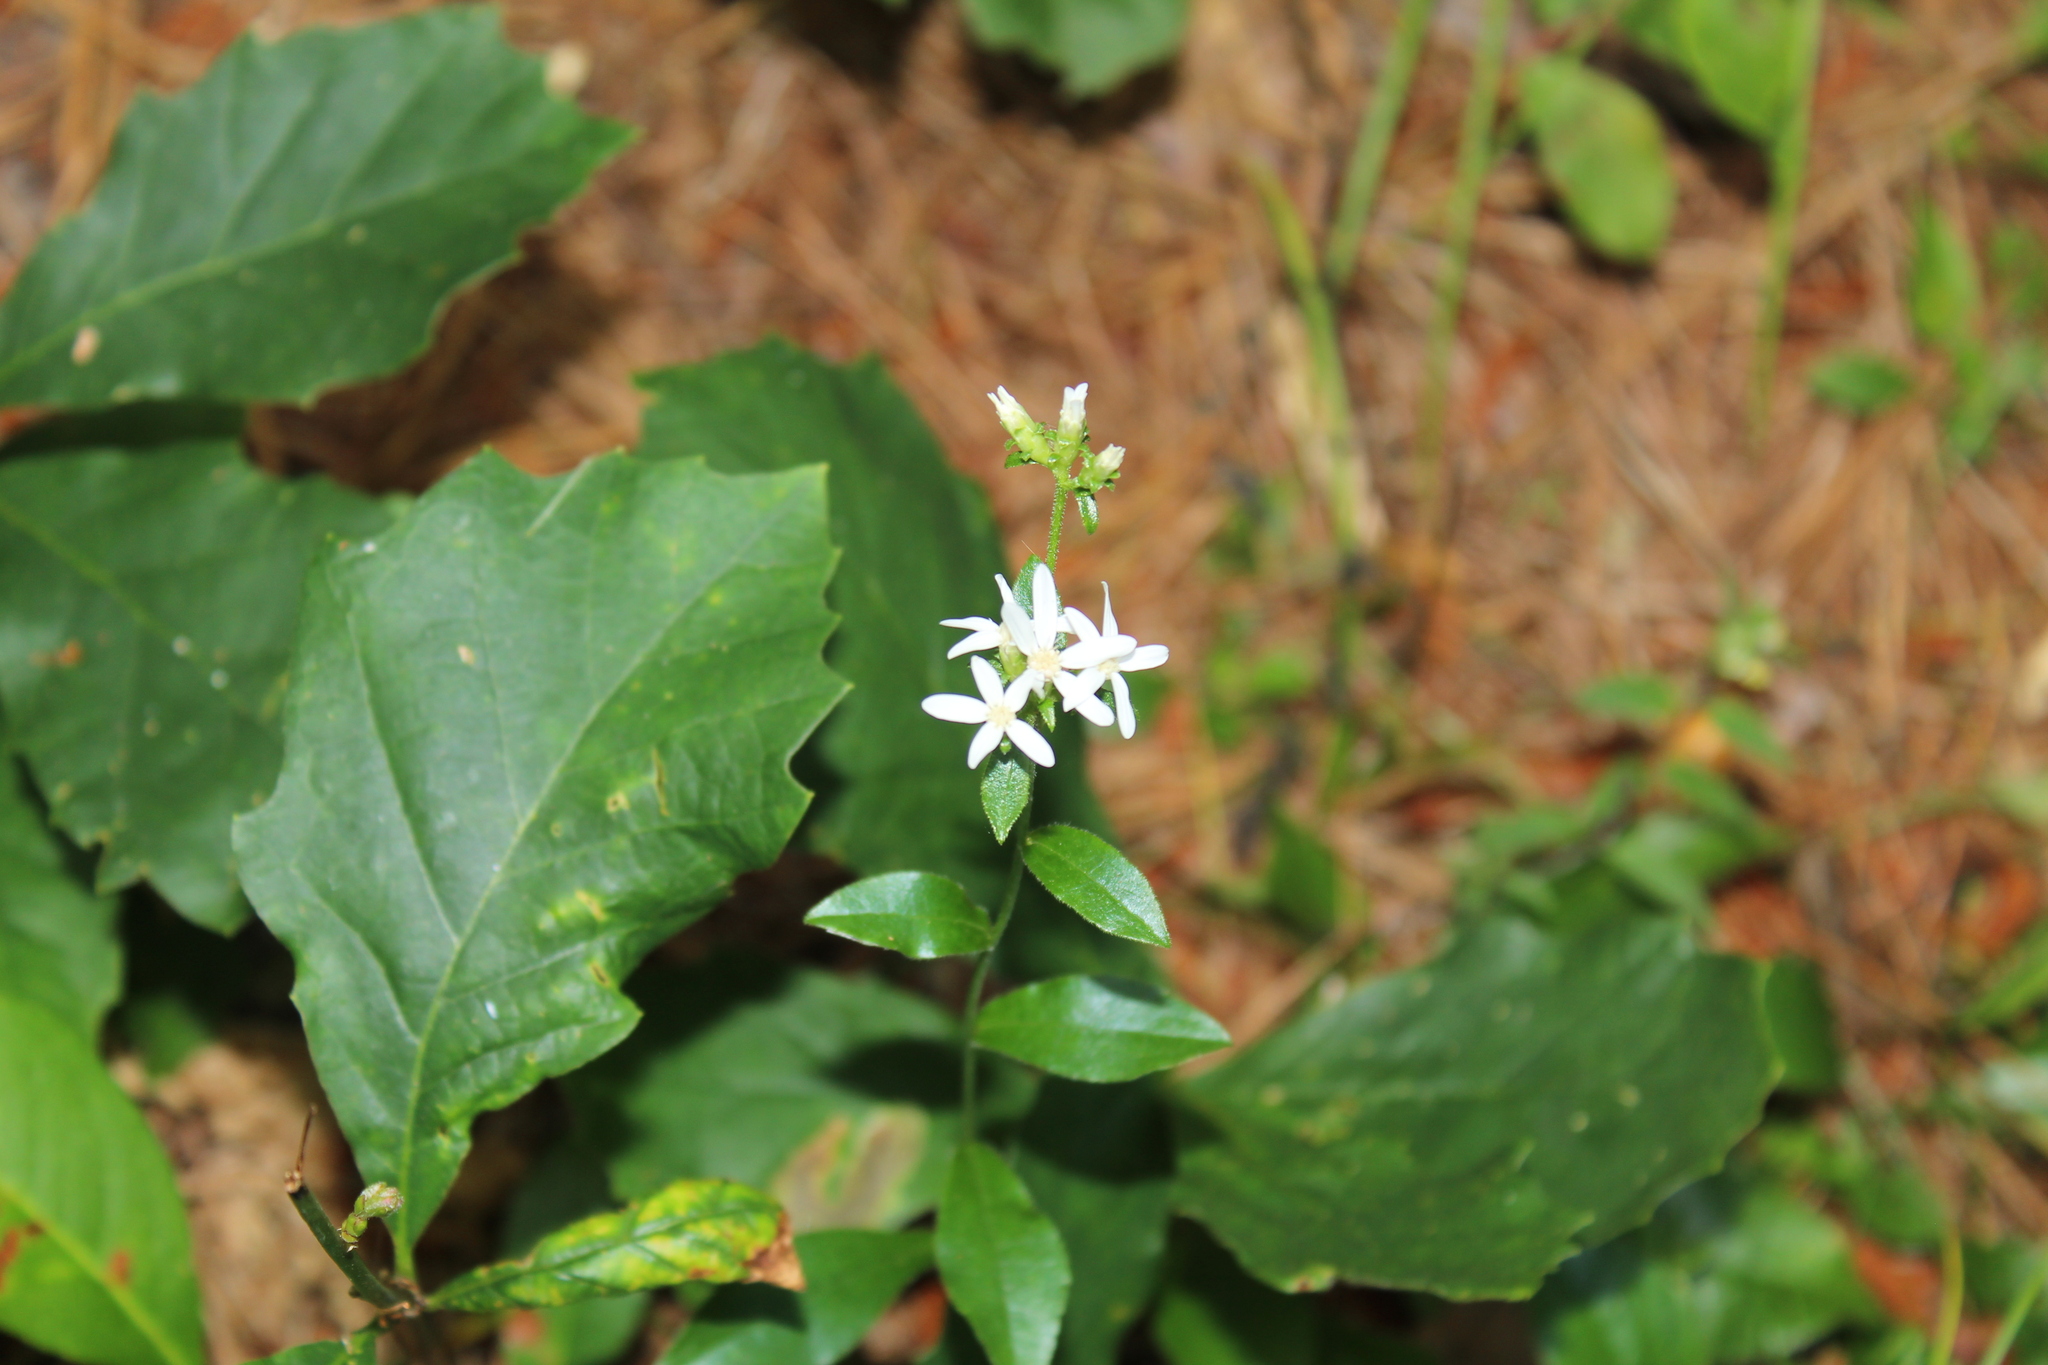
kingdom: Plantae
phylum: Tracheophyta
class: Magnoliopsida
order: Asterales
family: Asteraceae
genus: Sericocarpus
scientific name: Sericocarpus asteroides
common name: Toothed white-top aster
